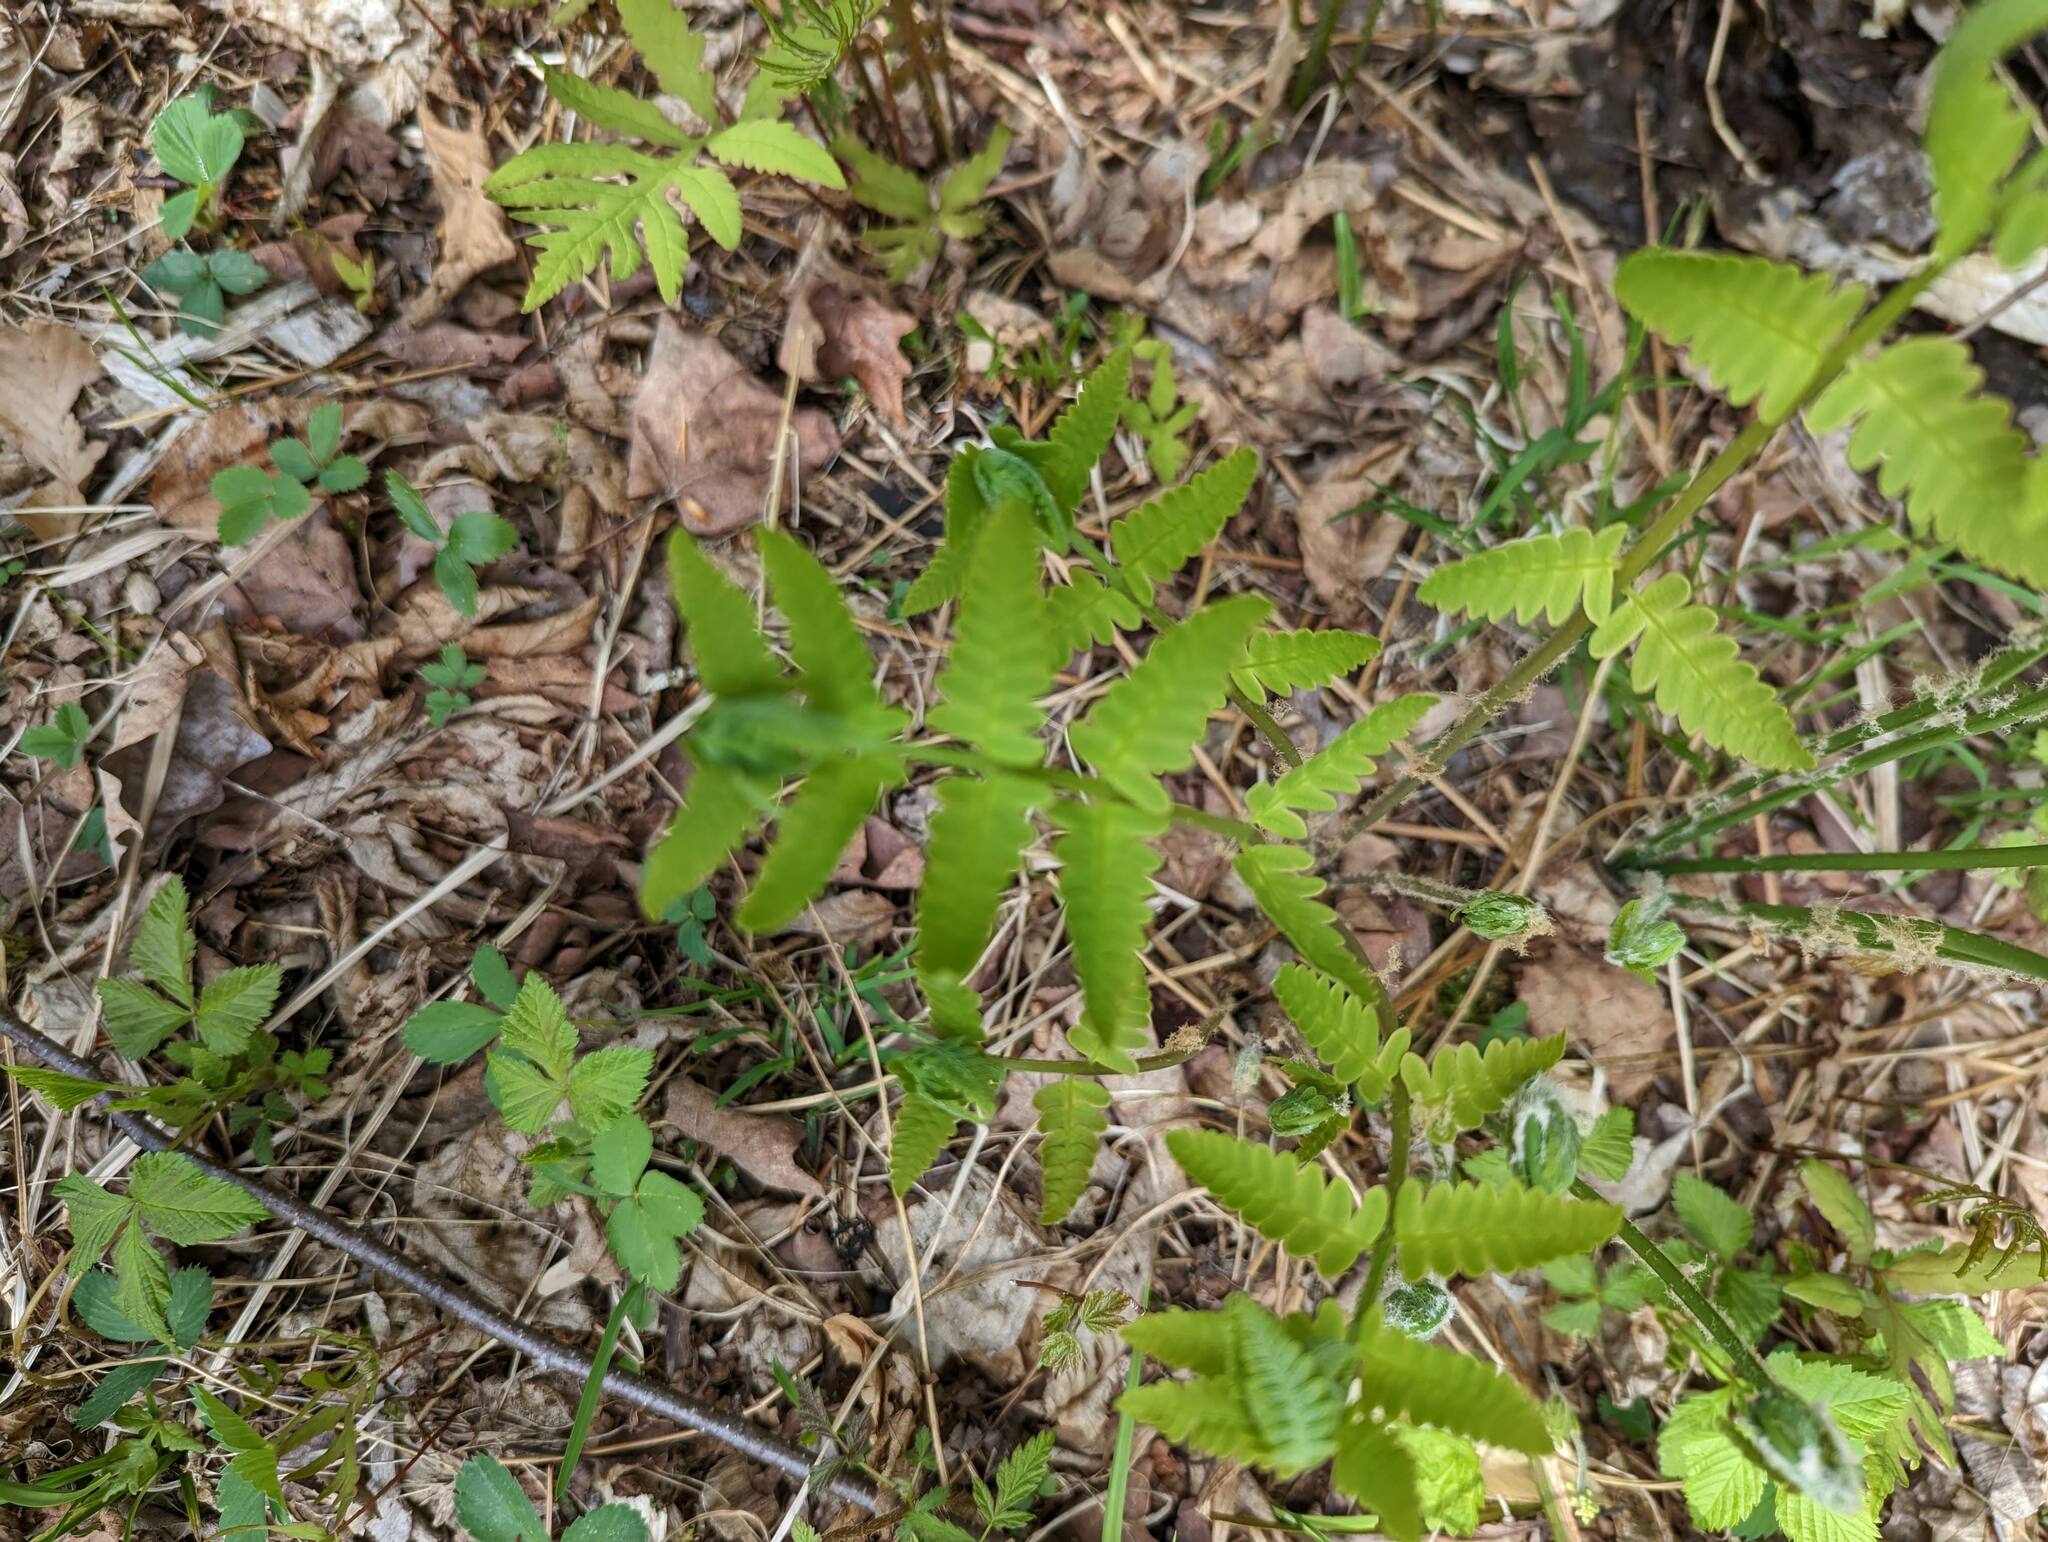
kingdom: Plantae
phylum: Tracheophyta
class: Polypodiopsida
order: Osmundales
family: Osmundaceae
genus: Claytosmunda
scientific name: Claytosmunda claytoniana
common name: Clayton's fern
